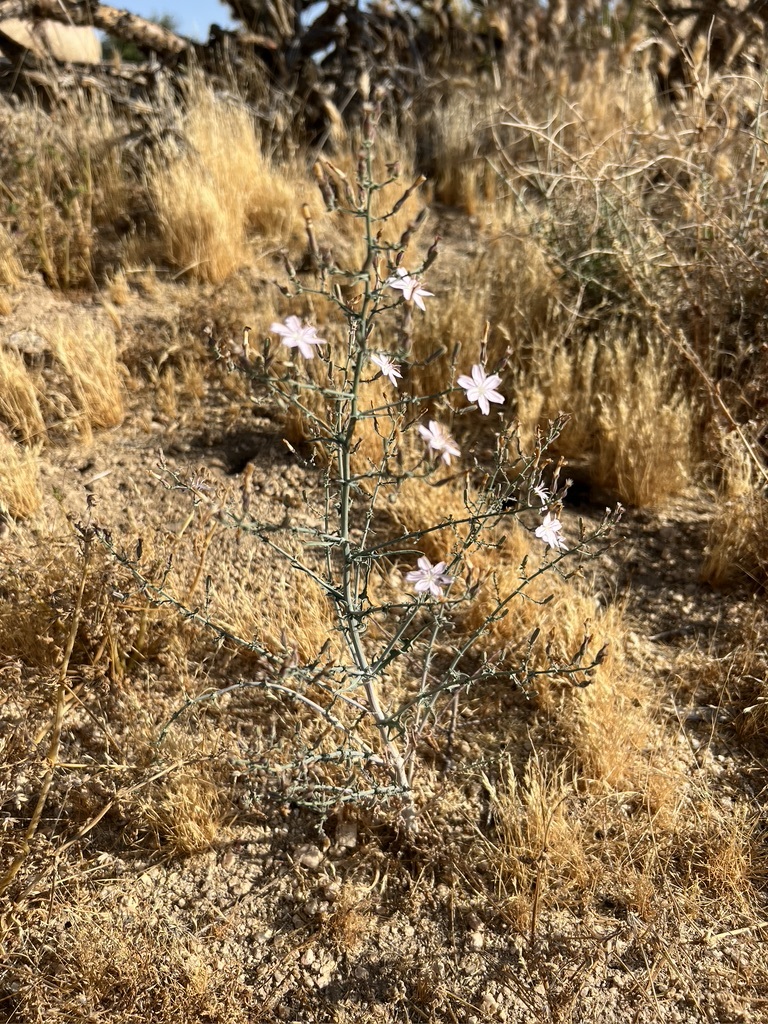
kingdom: Plantae
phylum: Tracheophyta
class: Magnoliopsida
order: Asterales
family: Asteraceae
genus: Stephanomeria
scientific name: Stephanomeria exigua
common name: Small wirelettuce
